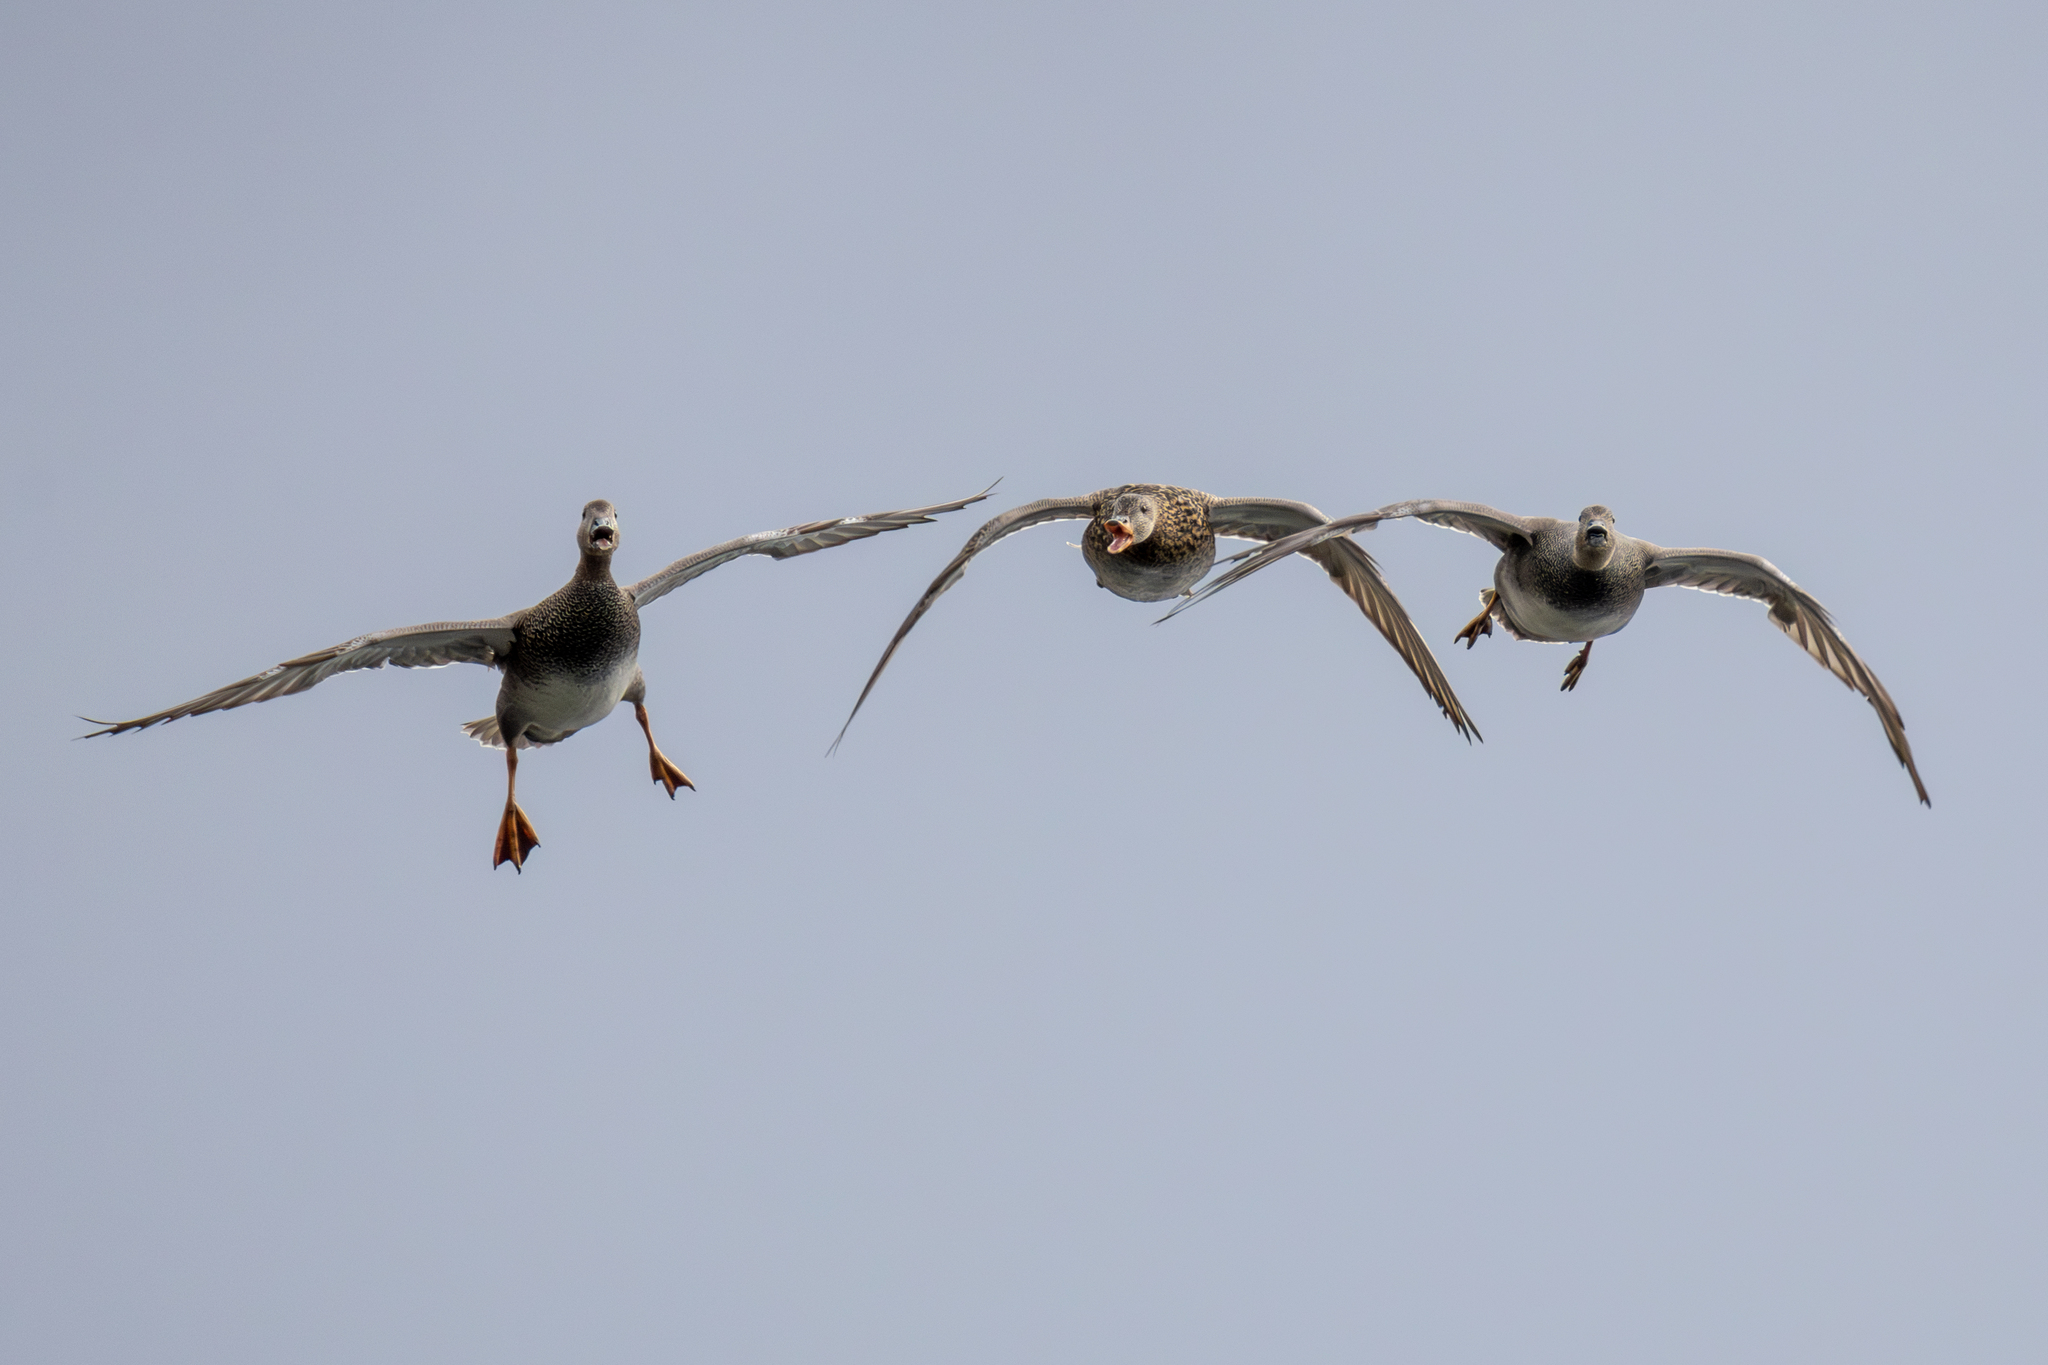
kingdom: Animalia
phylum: Chordata
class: Aves
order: Anseriformes
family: Anatidae
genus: Mareca
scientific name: Mareca strepera
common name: Gadwall
